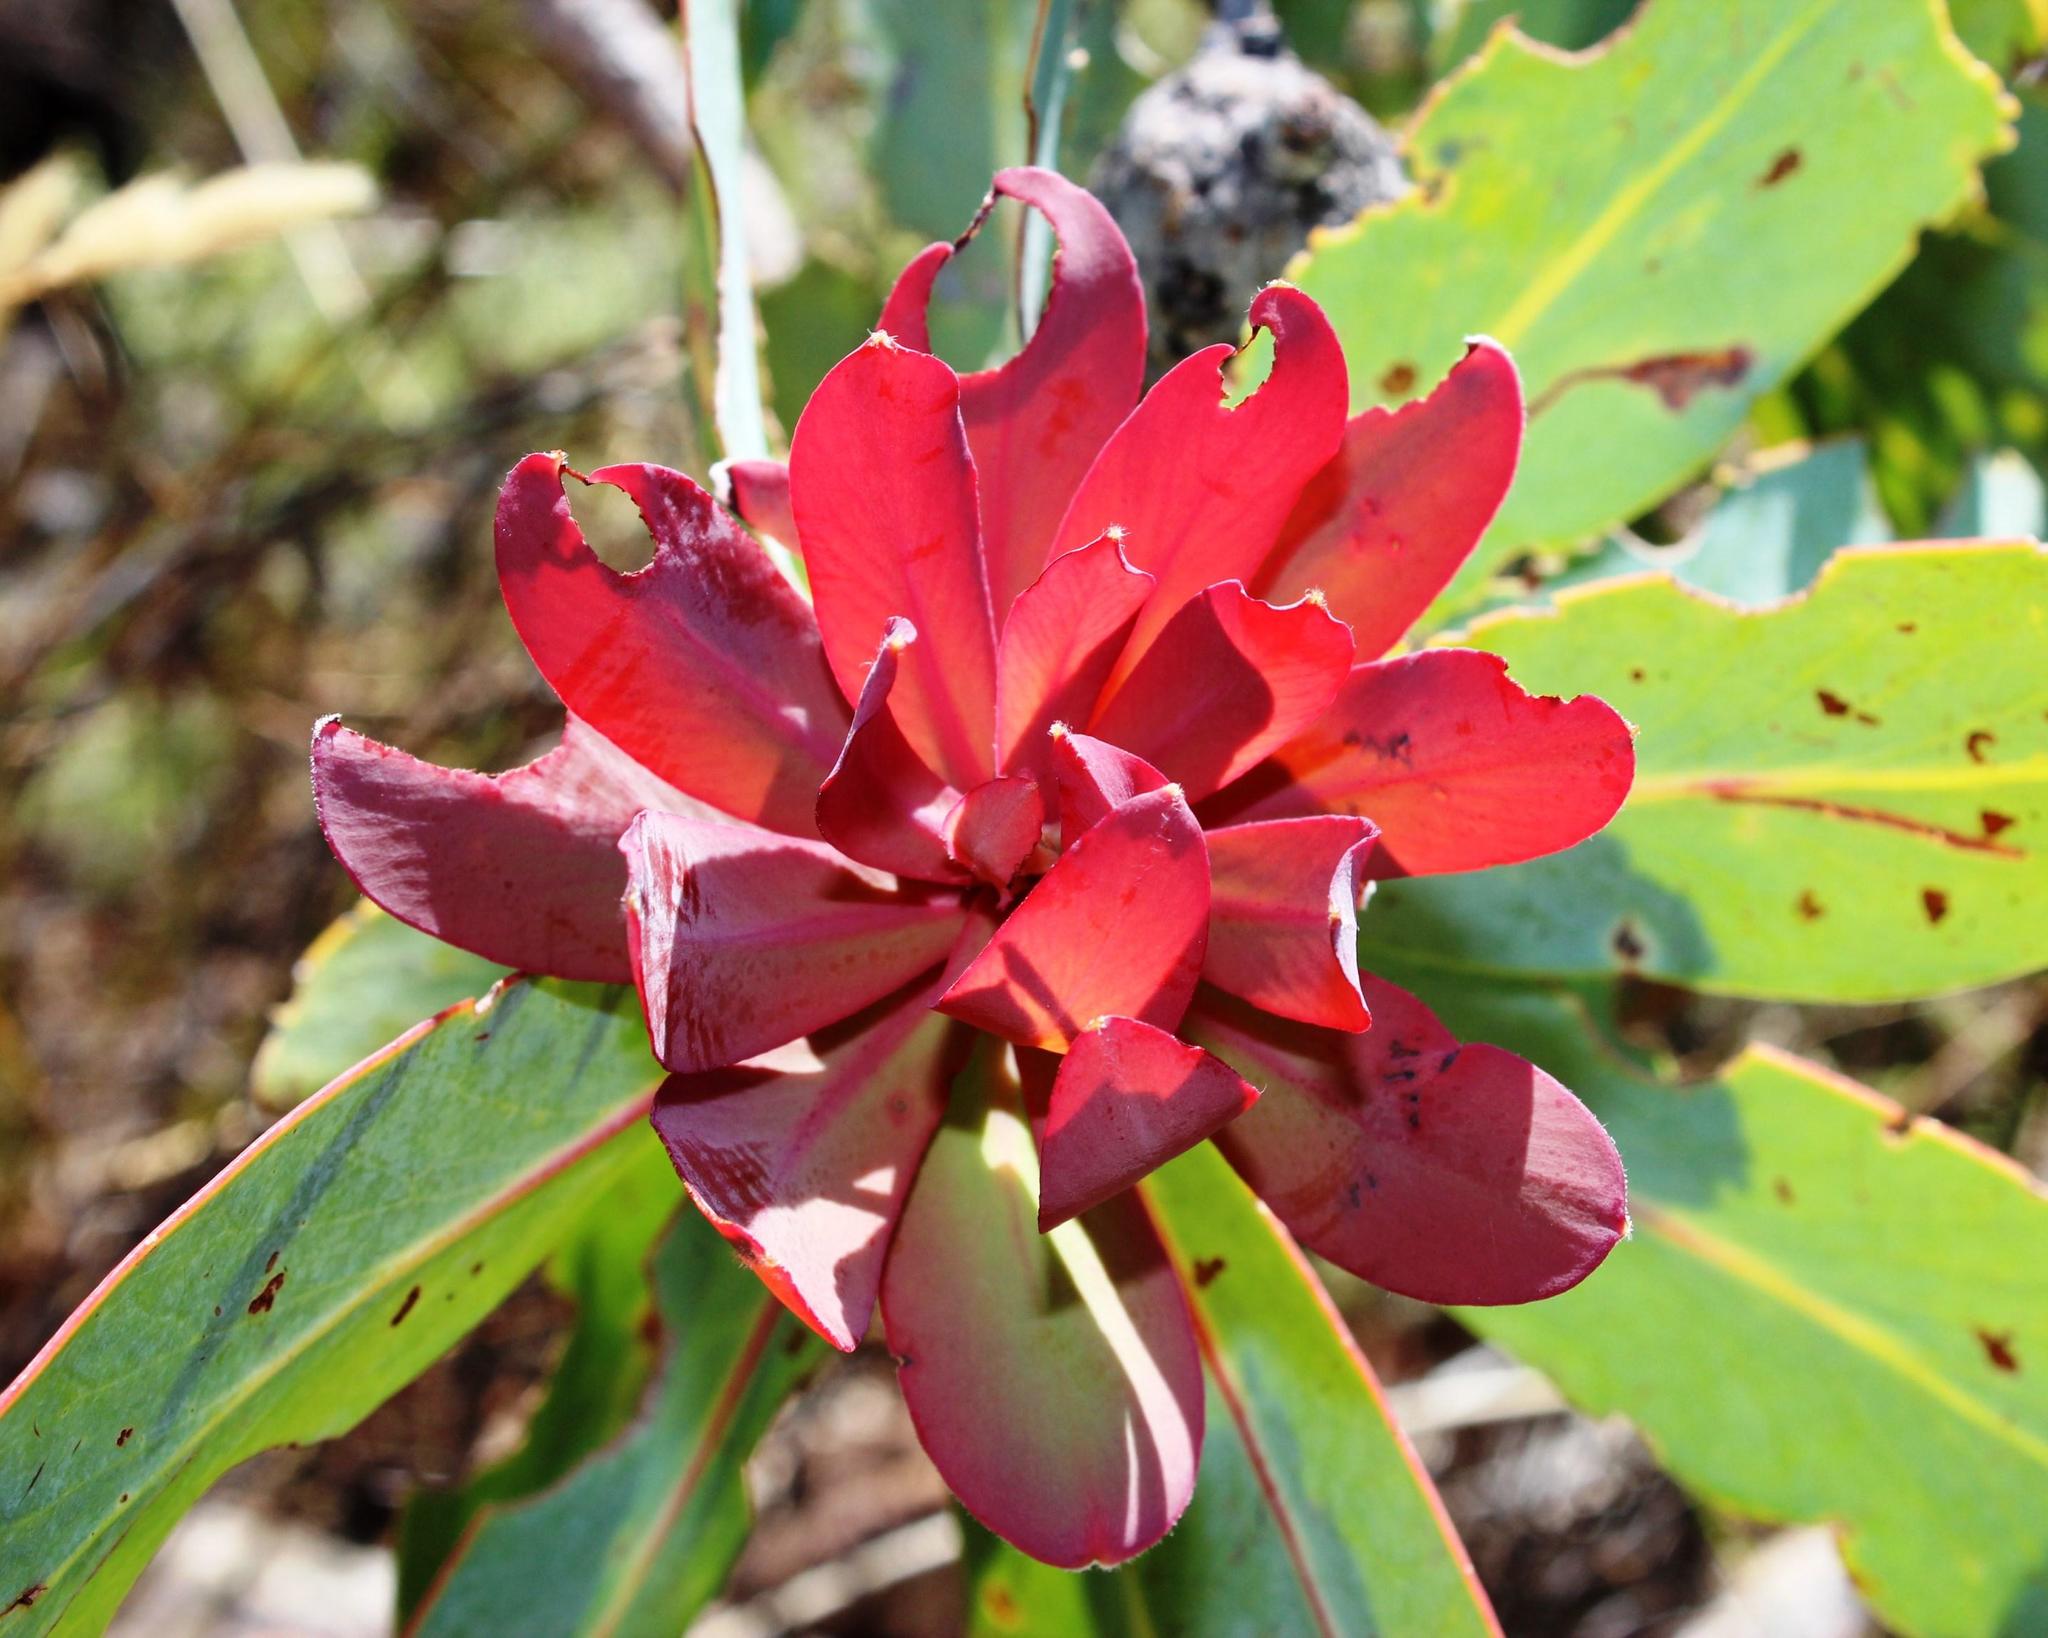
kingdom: Plantae
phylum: Tracheophyta
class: Magnoliopsida
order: Proteales
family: Proteaceae
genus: Protea
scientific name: Protea nitida
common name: Tree protea
